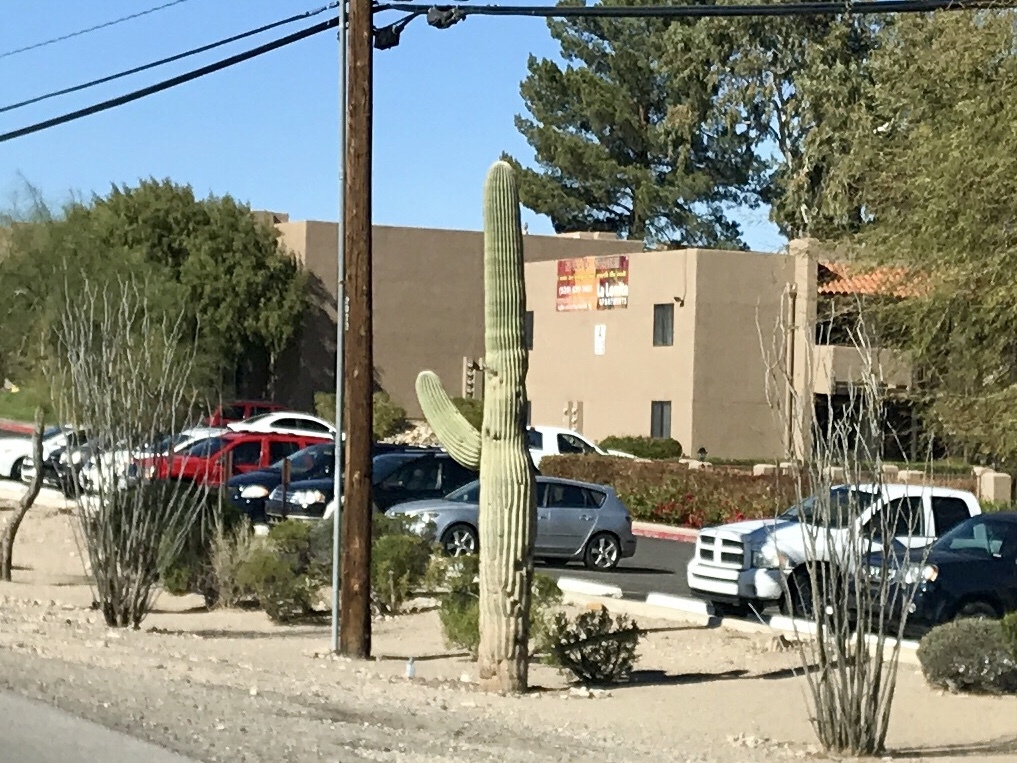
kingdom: Plantae
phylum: Tracheophyta
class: Magnoliopsida
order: Caryophyllales
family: Cactaceae
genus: Carnegiea
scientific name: Carnegiea gigantea
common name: Saguaro
